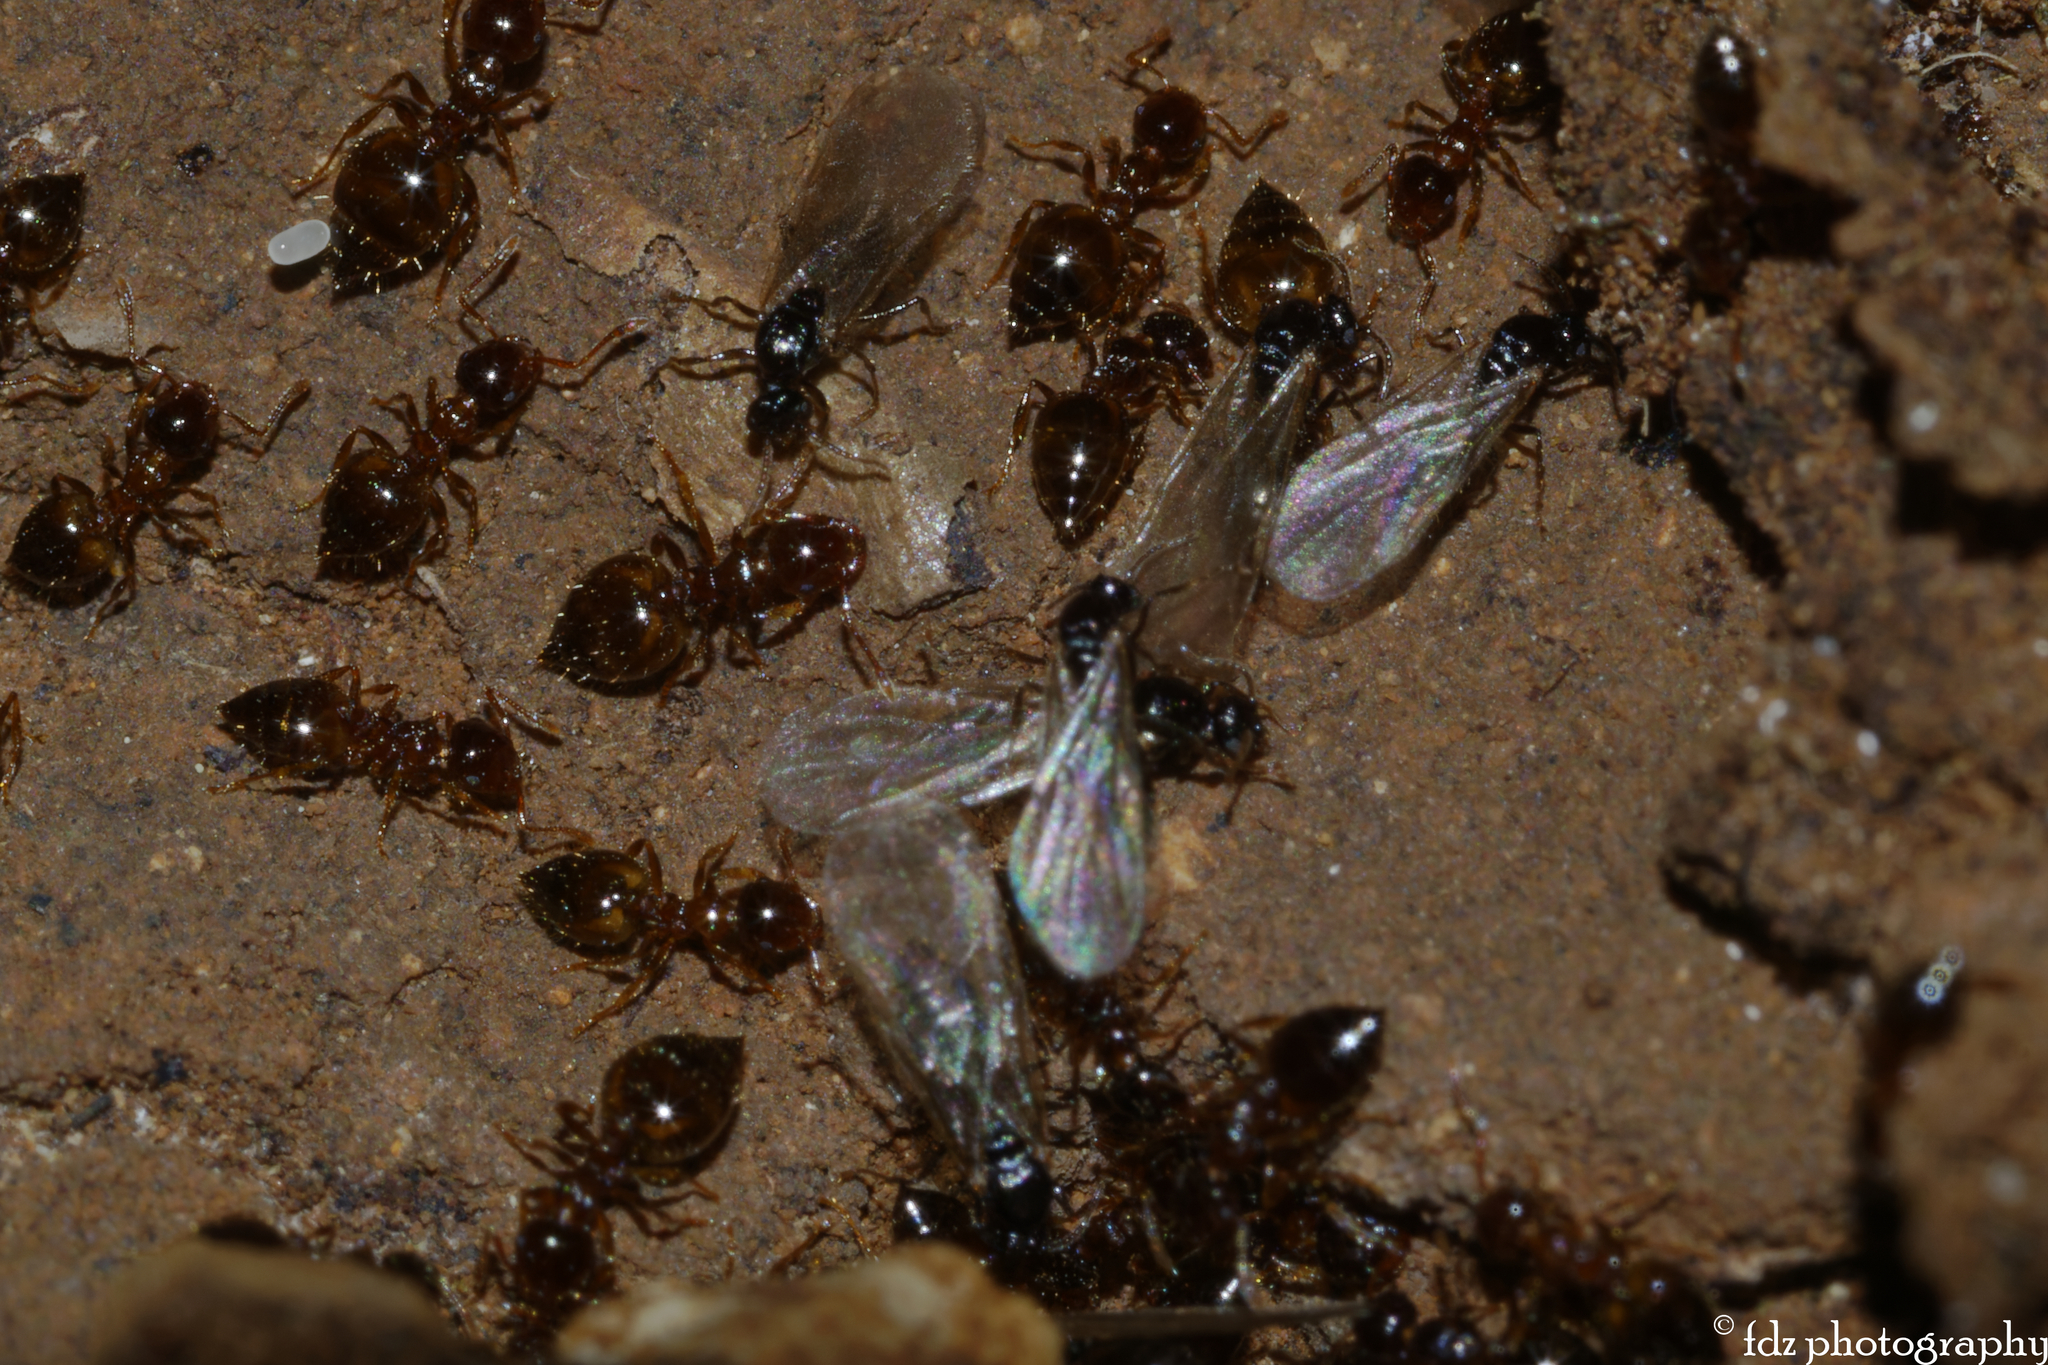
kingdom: Animalia
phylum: Arthropoda
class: Insecta
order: Hymenoptera
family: Formicidae
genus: Crematogaster
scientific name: Crematogaster sordidula
